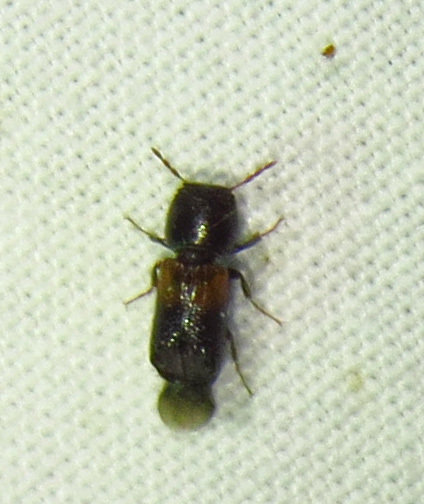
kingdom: Animalia
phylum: Arthropoda
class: Insecta
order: Coleoptera
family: Bostrichidae
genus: Xylobiops
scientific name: Xylobiops basilaris
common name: Red-shouldered bostrichid
